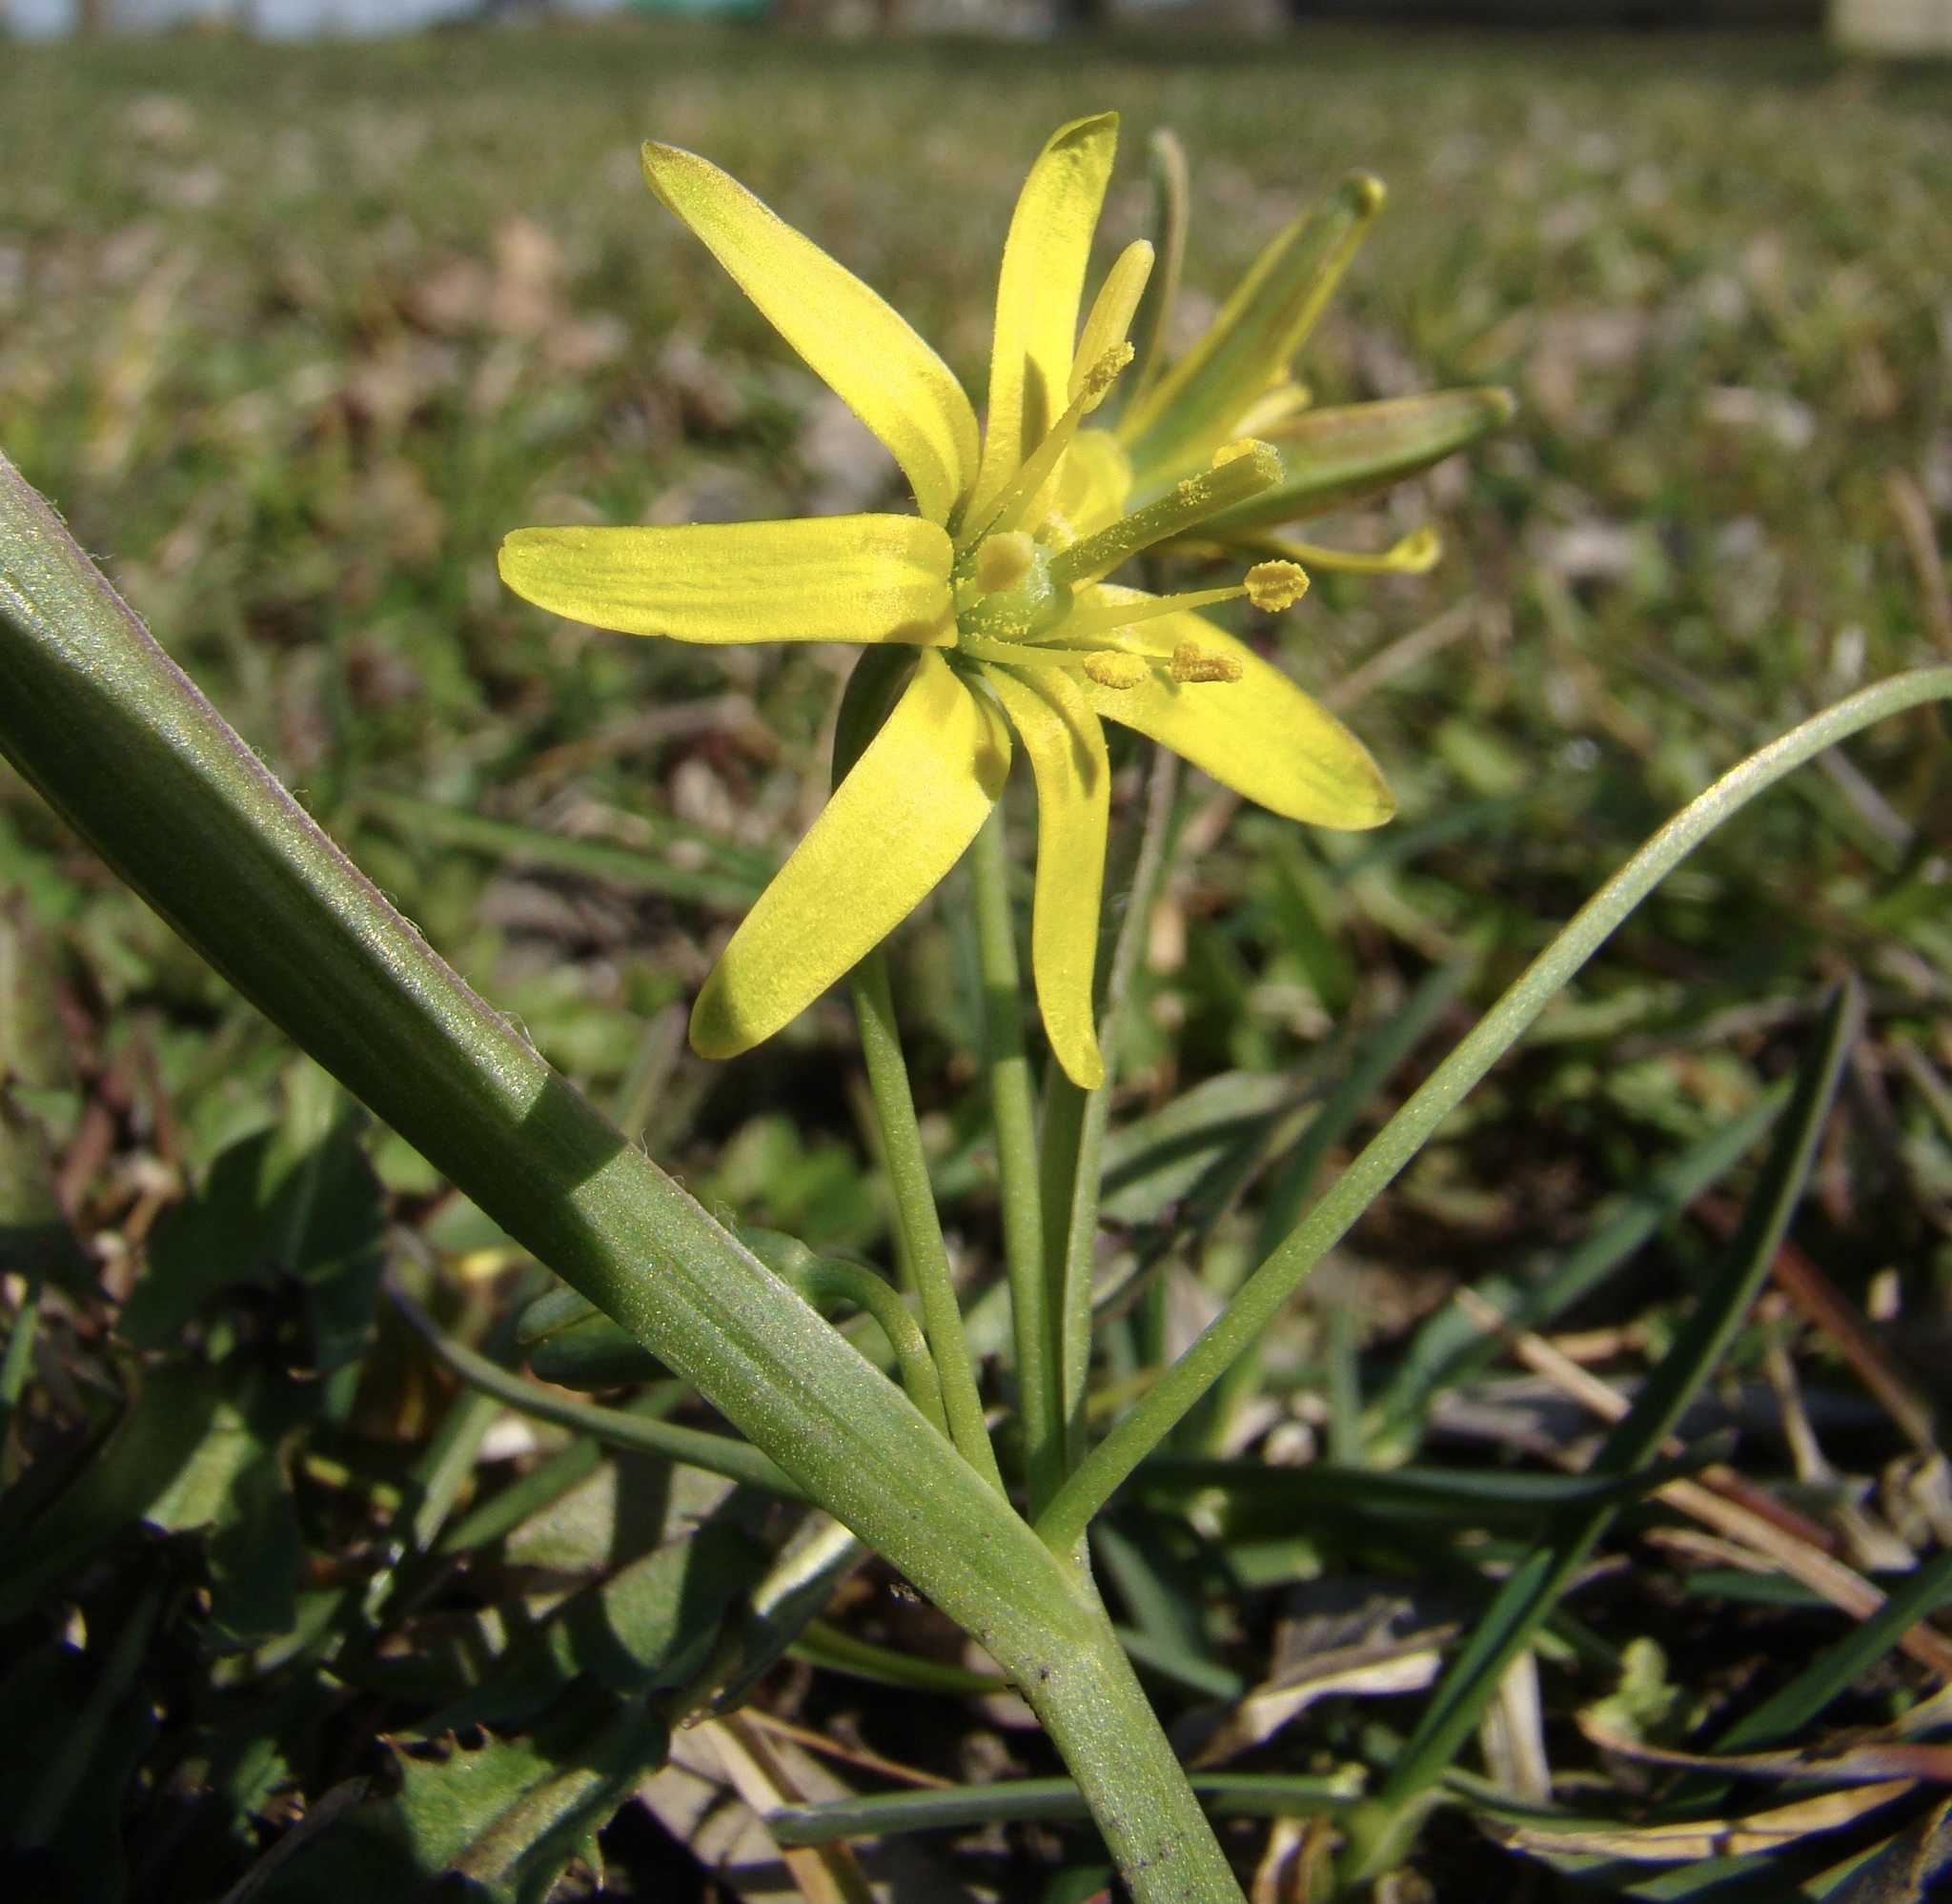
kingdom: Plantae
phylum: Tracheophyta
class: Liliopsida
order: Liliales
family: Liliaceae
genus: Gagea
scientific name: Gagea lutea
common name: Yellow star-of-bethlehem
